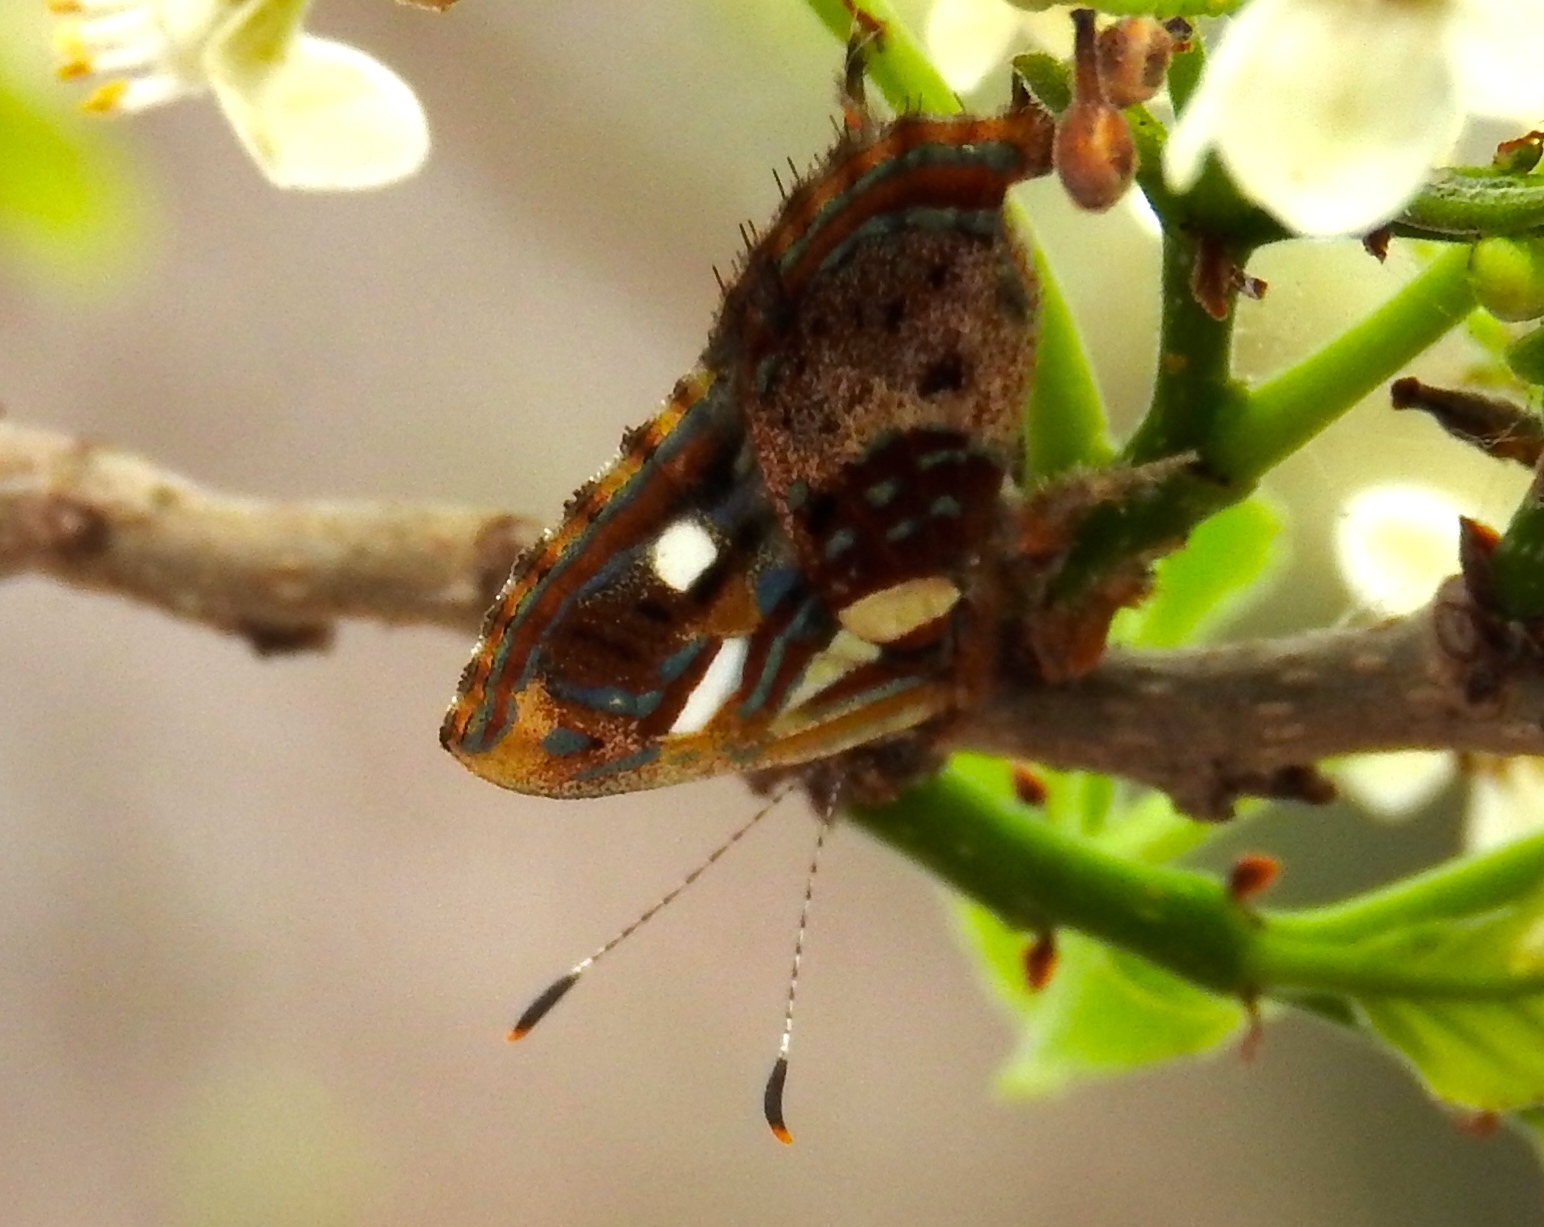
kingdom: Animalia
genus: Anteros
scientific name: Anteros carausius
